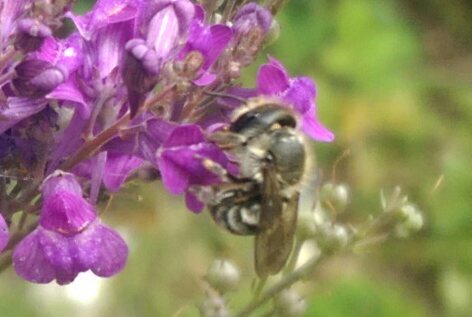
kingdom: Animalia
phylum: Arthropoda
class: Insecta
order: Hymenoptera
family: Megachilidae
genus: Osmia
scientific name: Osmia caerulescens
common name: Blue mason bee
